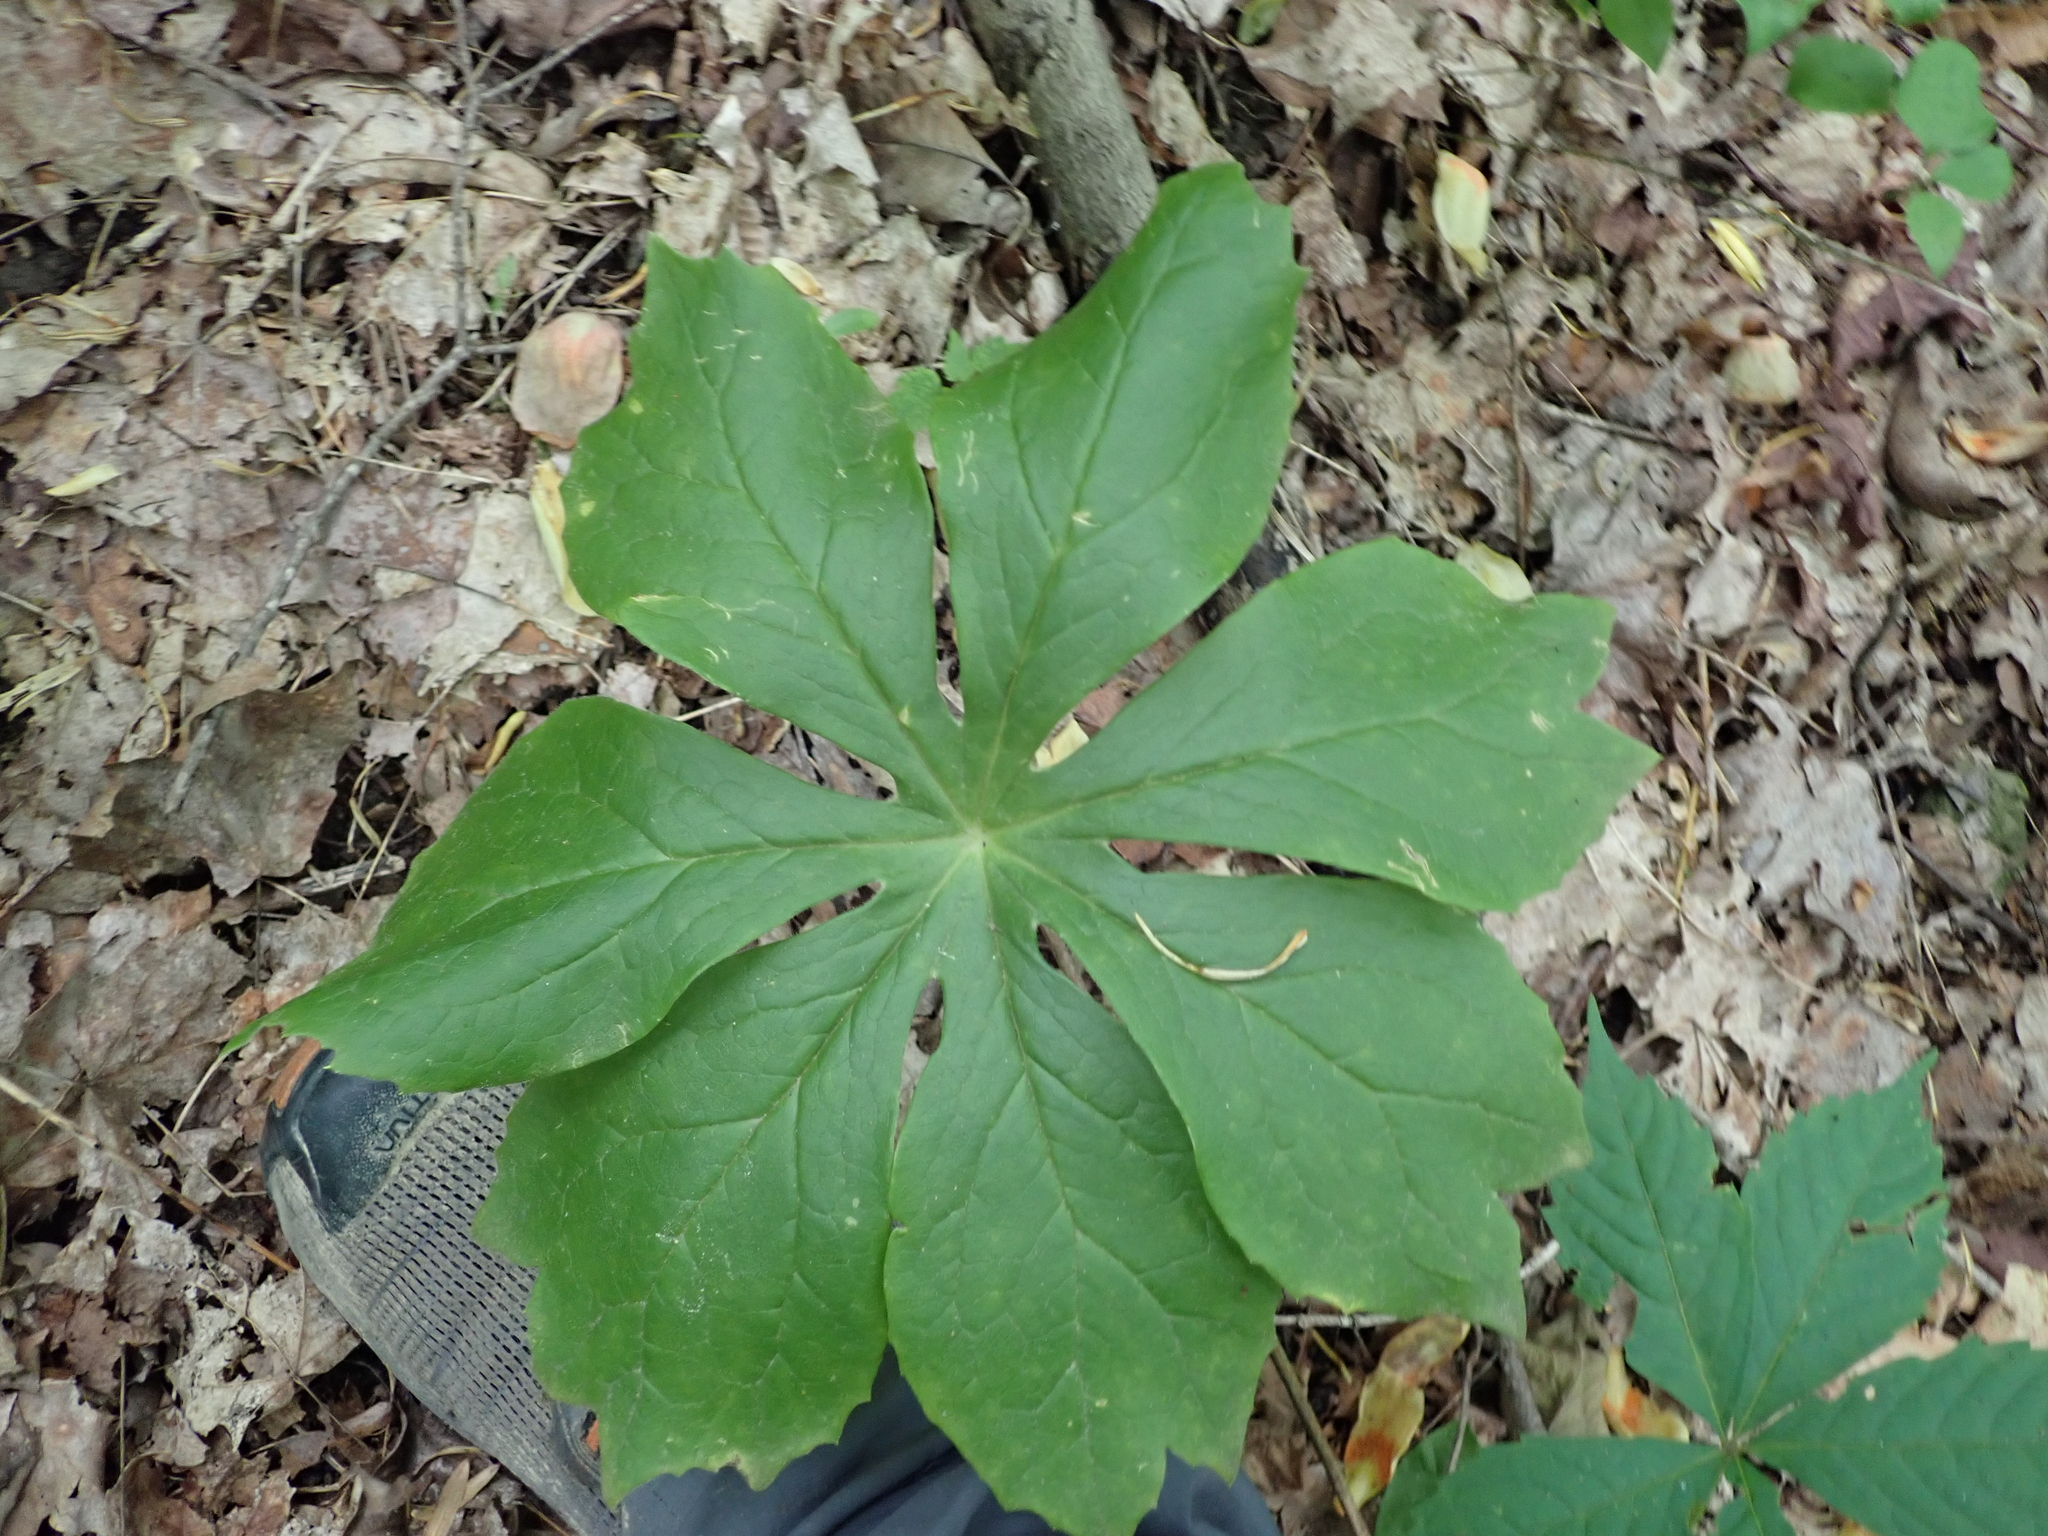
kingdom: Plantae
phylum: Tracheophyta
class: Magnoliopsida
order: Ranunculales
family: Berberidaceae
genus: Podophyllum
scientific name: Podophyllum peltatum
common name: Wild mandrake
